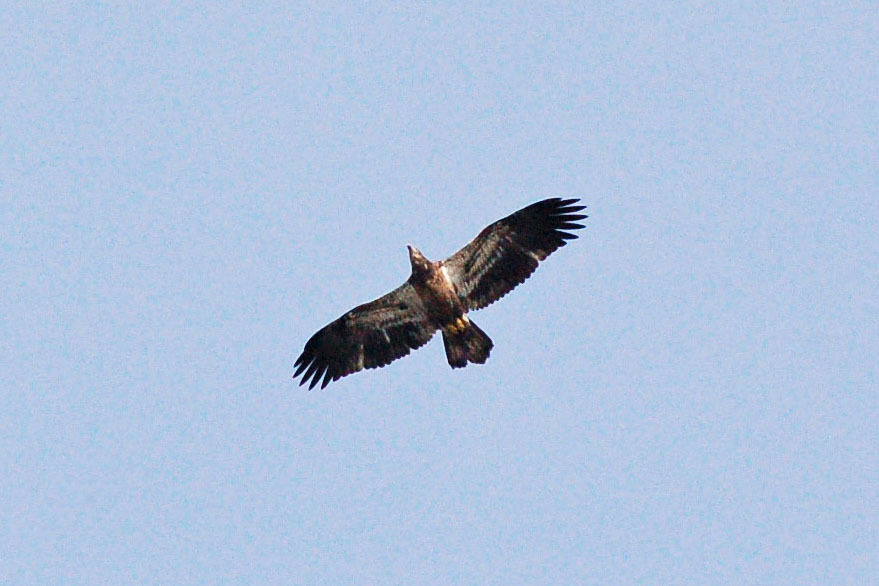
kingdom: Animalia
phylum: Chordata
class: Aves
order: Accipitriformes
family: Accipitridae
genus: Haliaeetus
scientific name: Haliaeetus leucocephalus
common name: Bald eagle
